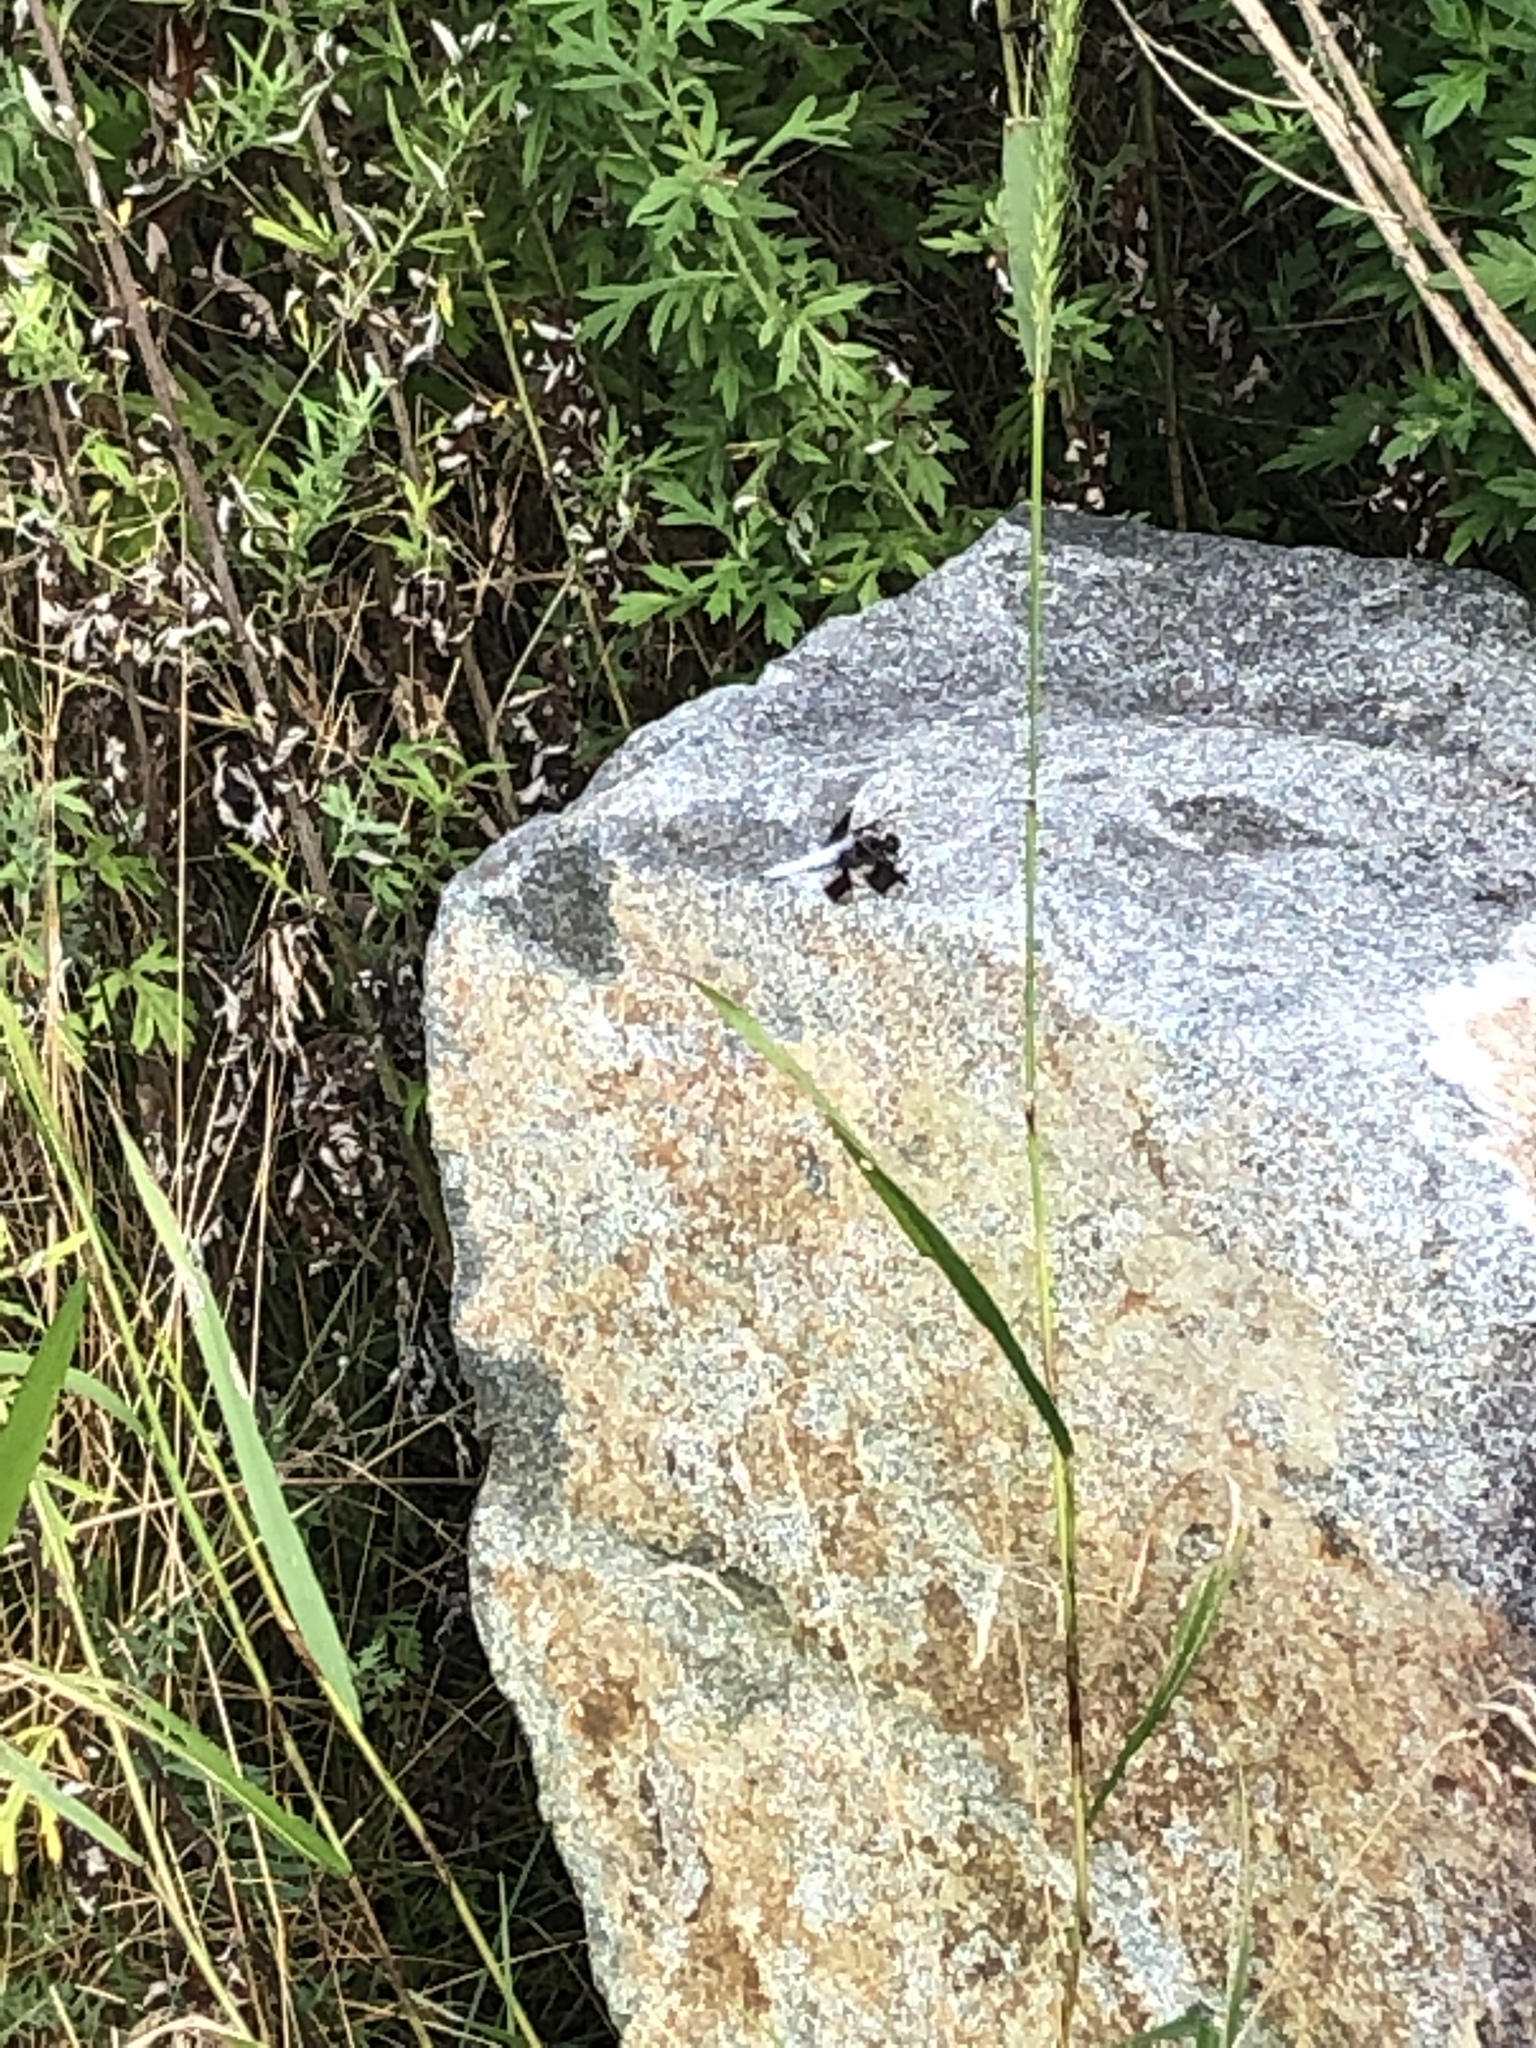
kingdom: Animalia
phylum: Arthropoda
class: Insecta
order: Odonata
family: Libellulidae
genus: Plathemis
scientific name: Plathemis lydia
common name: Common whitetail
